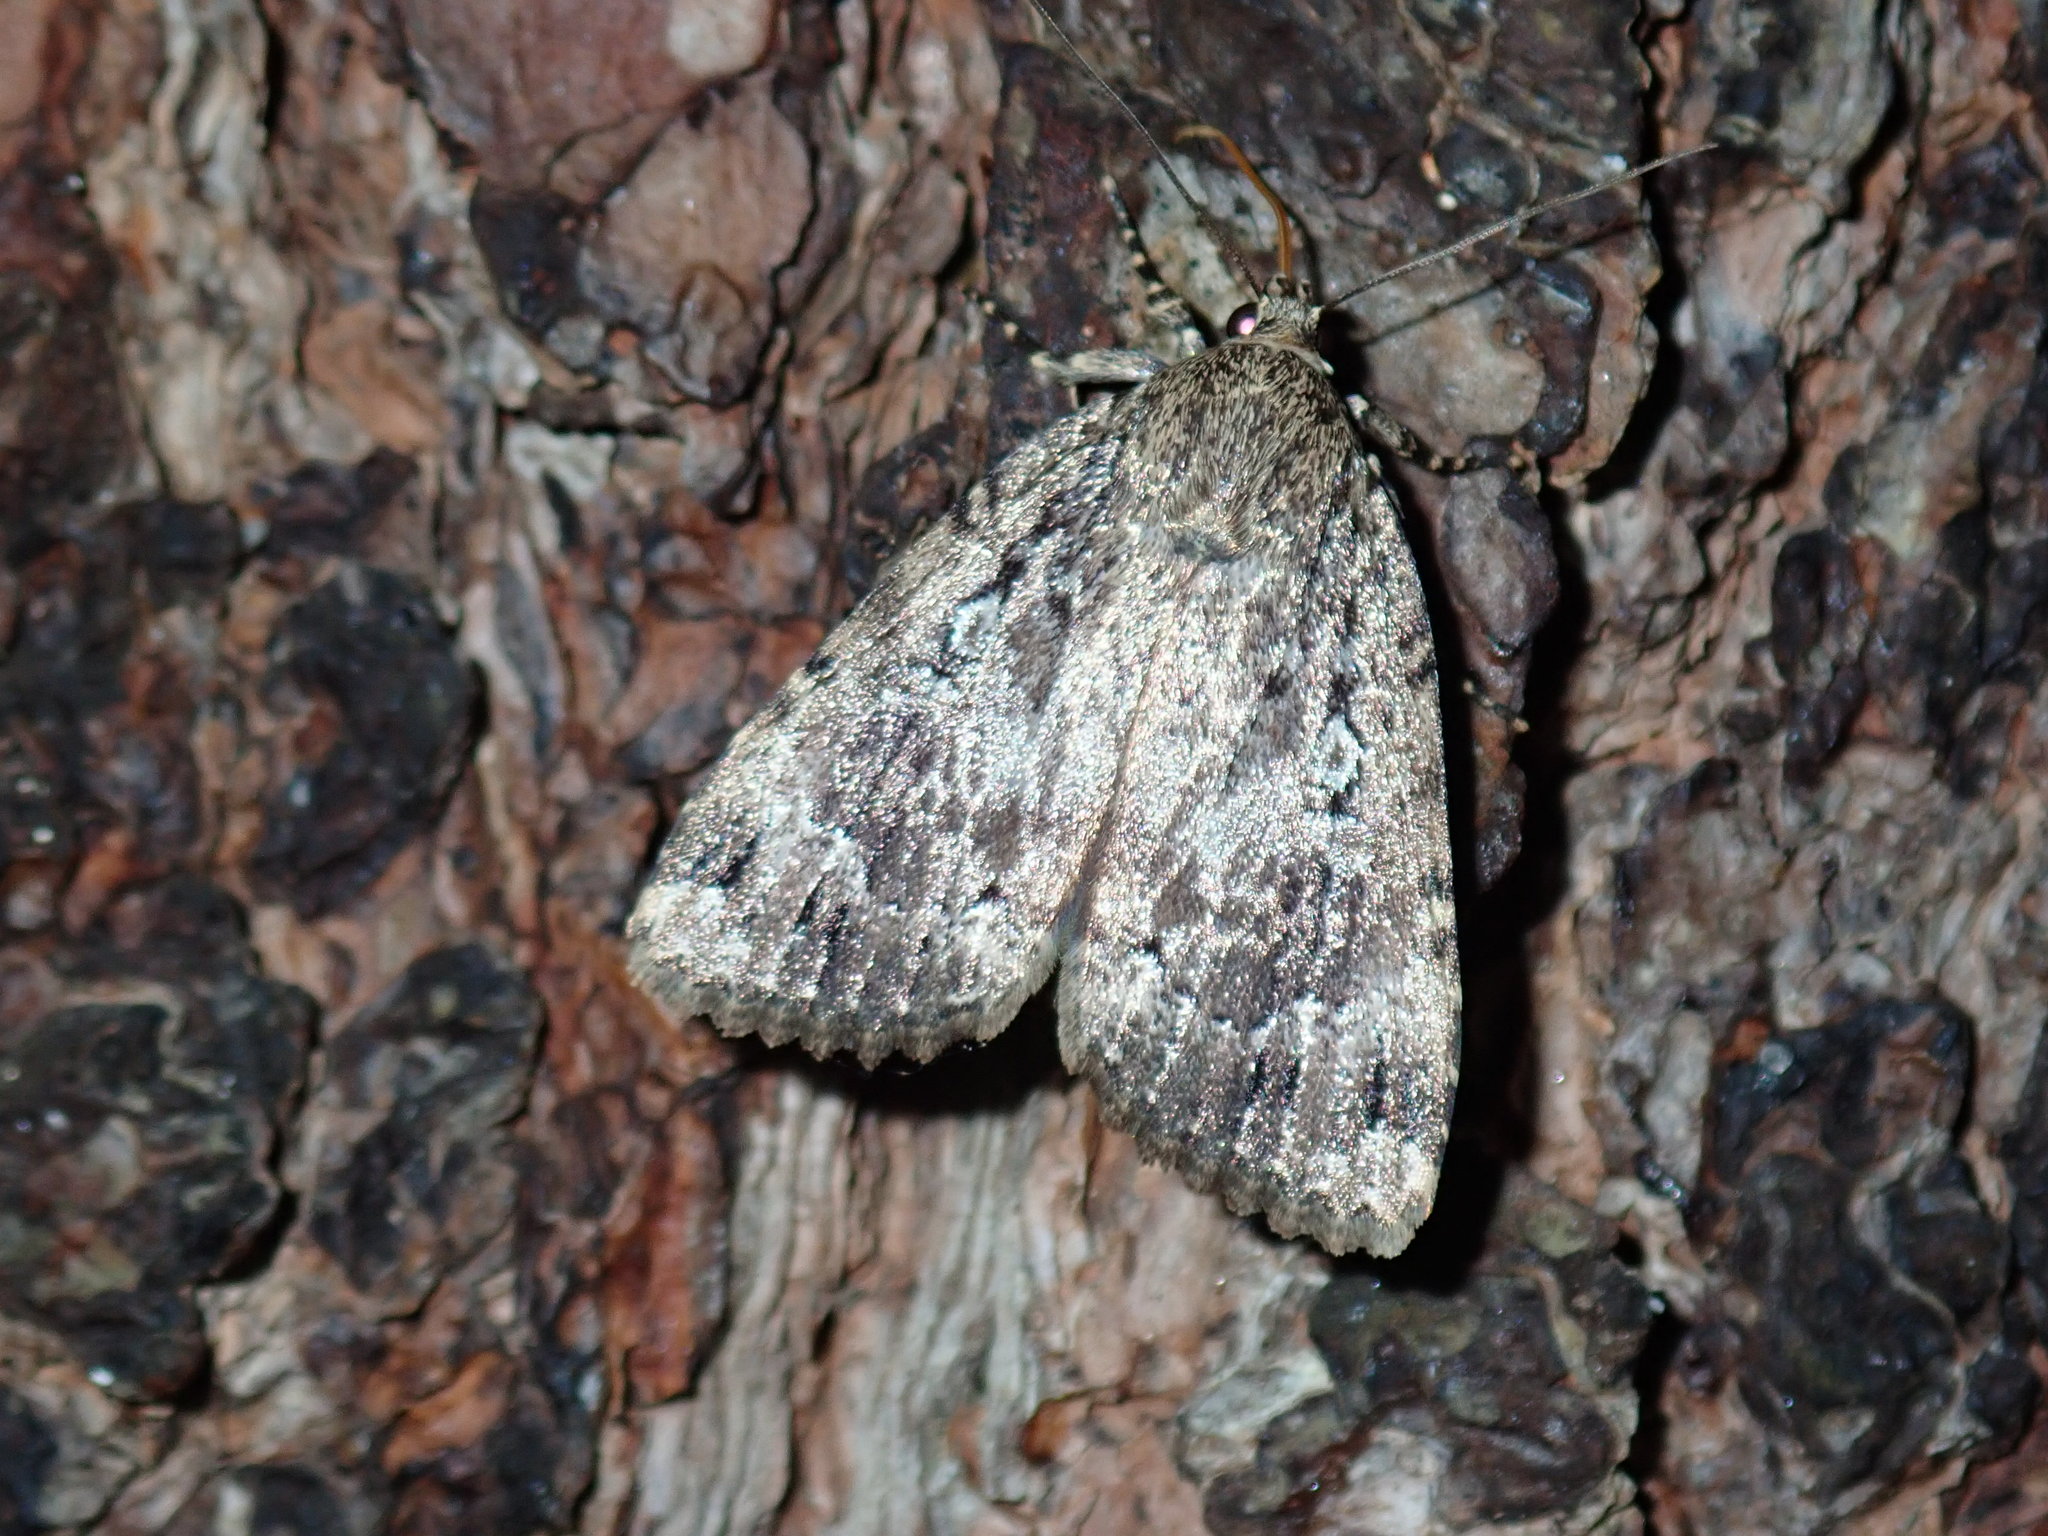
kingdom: Animalia
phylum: Arthropoda
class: Insecta
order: Lepidoptera
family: Noctuidae
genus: Amphipyra
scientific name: Amphipyra pyramidoides
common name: American copper underwing
